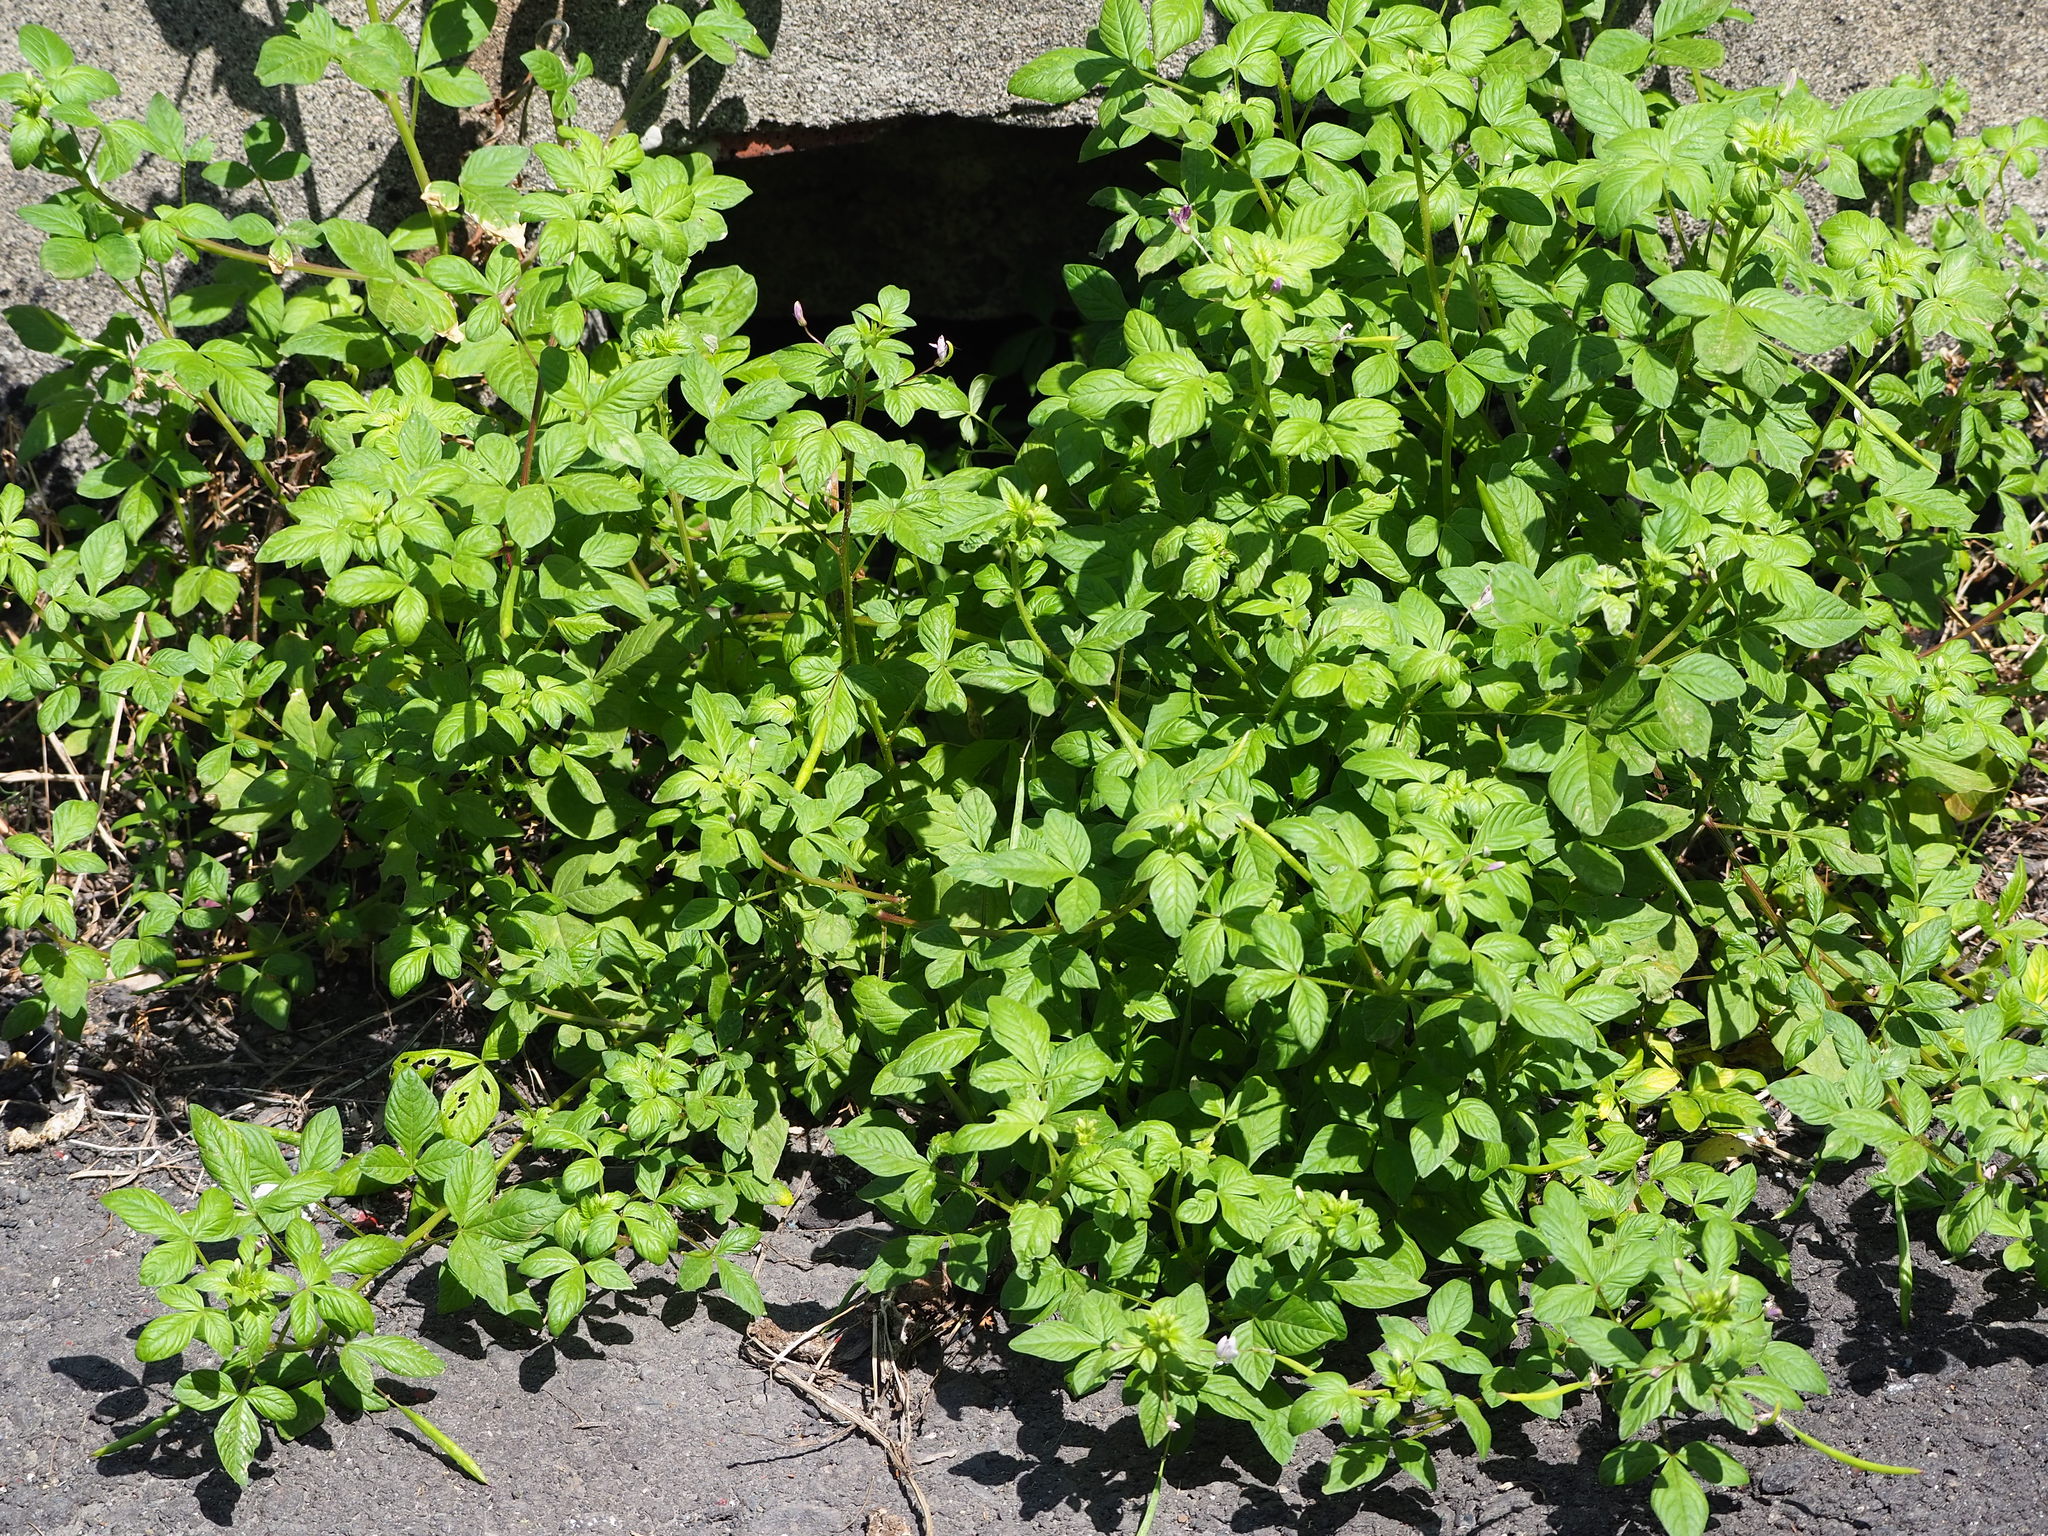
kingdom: Plantae
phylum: Tracheophyta
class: Magnoliopsida
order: Brassicales
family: Cleomaceae
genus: Sieruela
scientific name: Sieruela rutidosperma
